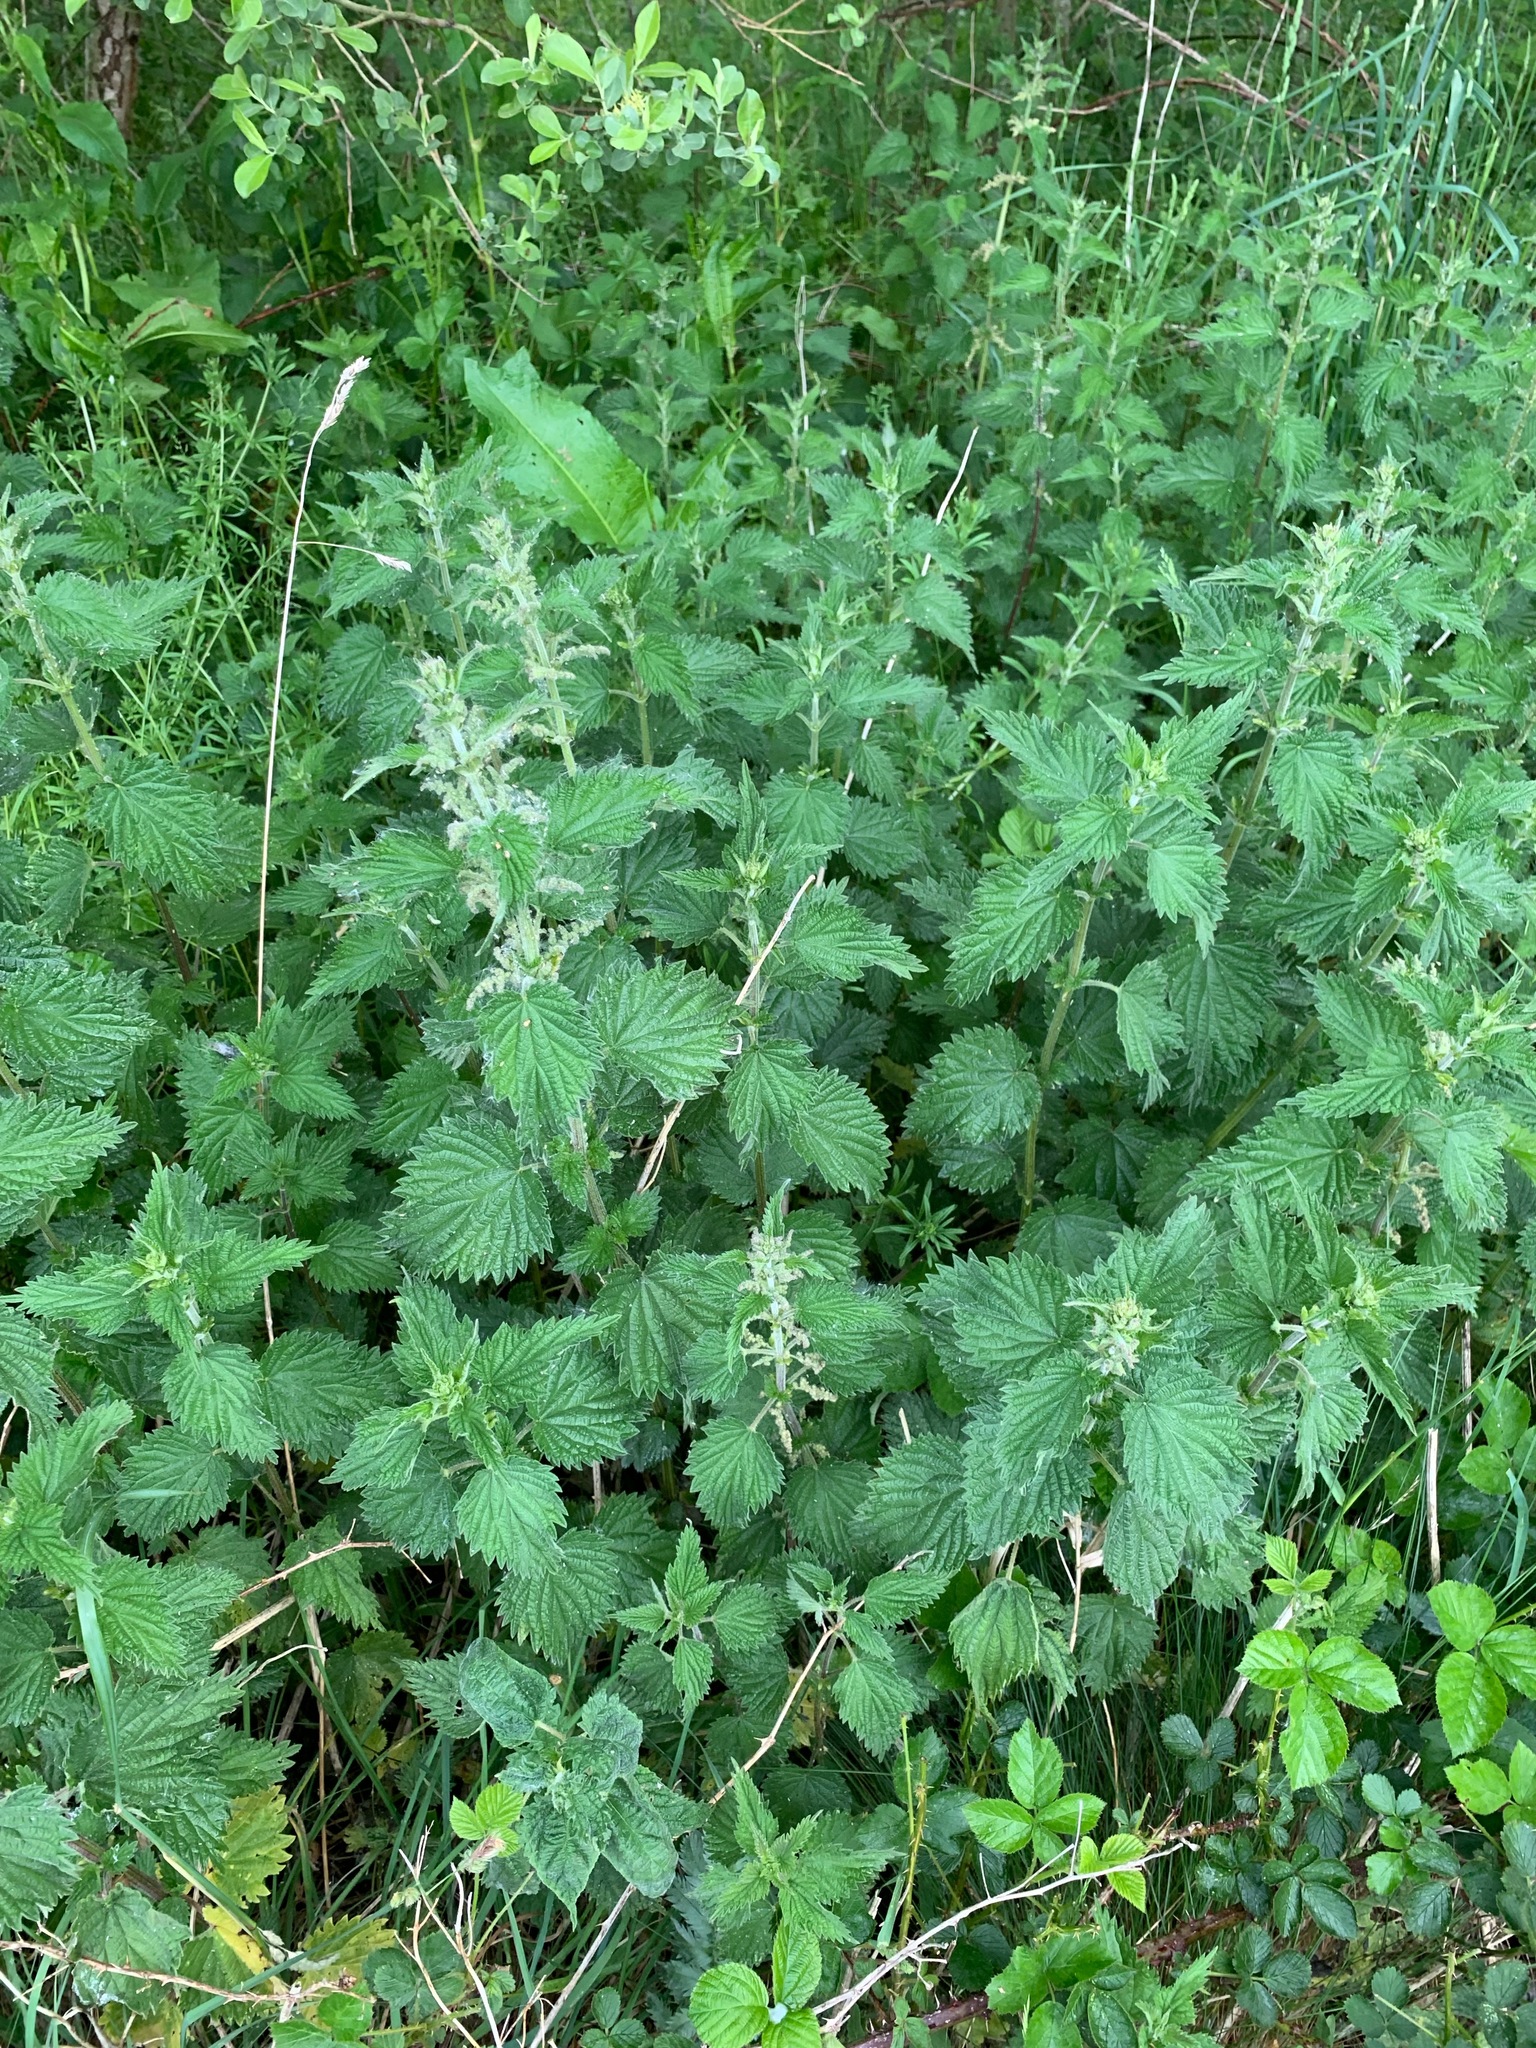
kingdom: Plantae
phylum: Tracheophyta
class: Magnoliopsida
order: Rosales
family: Urticaceae
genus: Urtica
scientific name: Urtica dioica
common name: Common nettle
